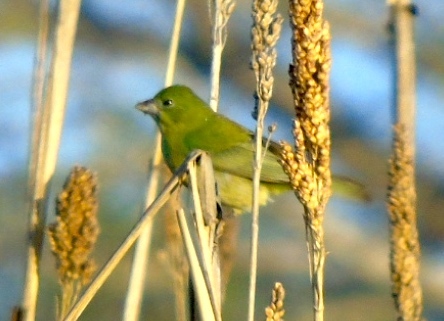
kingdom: Animalia
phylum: Chordata
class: Aves
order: Passeriformes
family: Cardinalidae
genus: Passerina
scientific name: Passerina ciris
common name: Painted bunting
